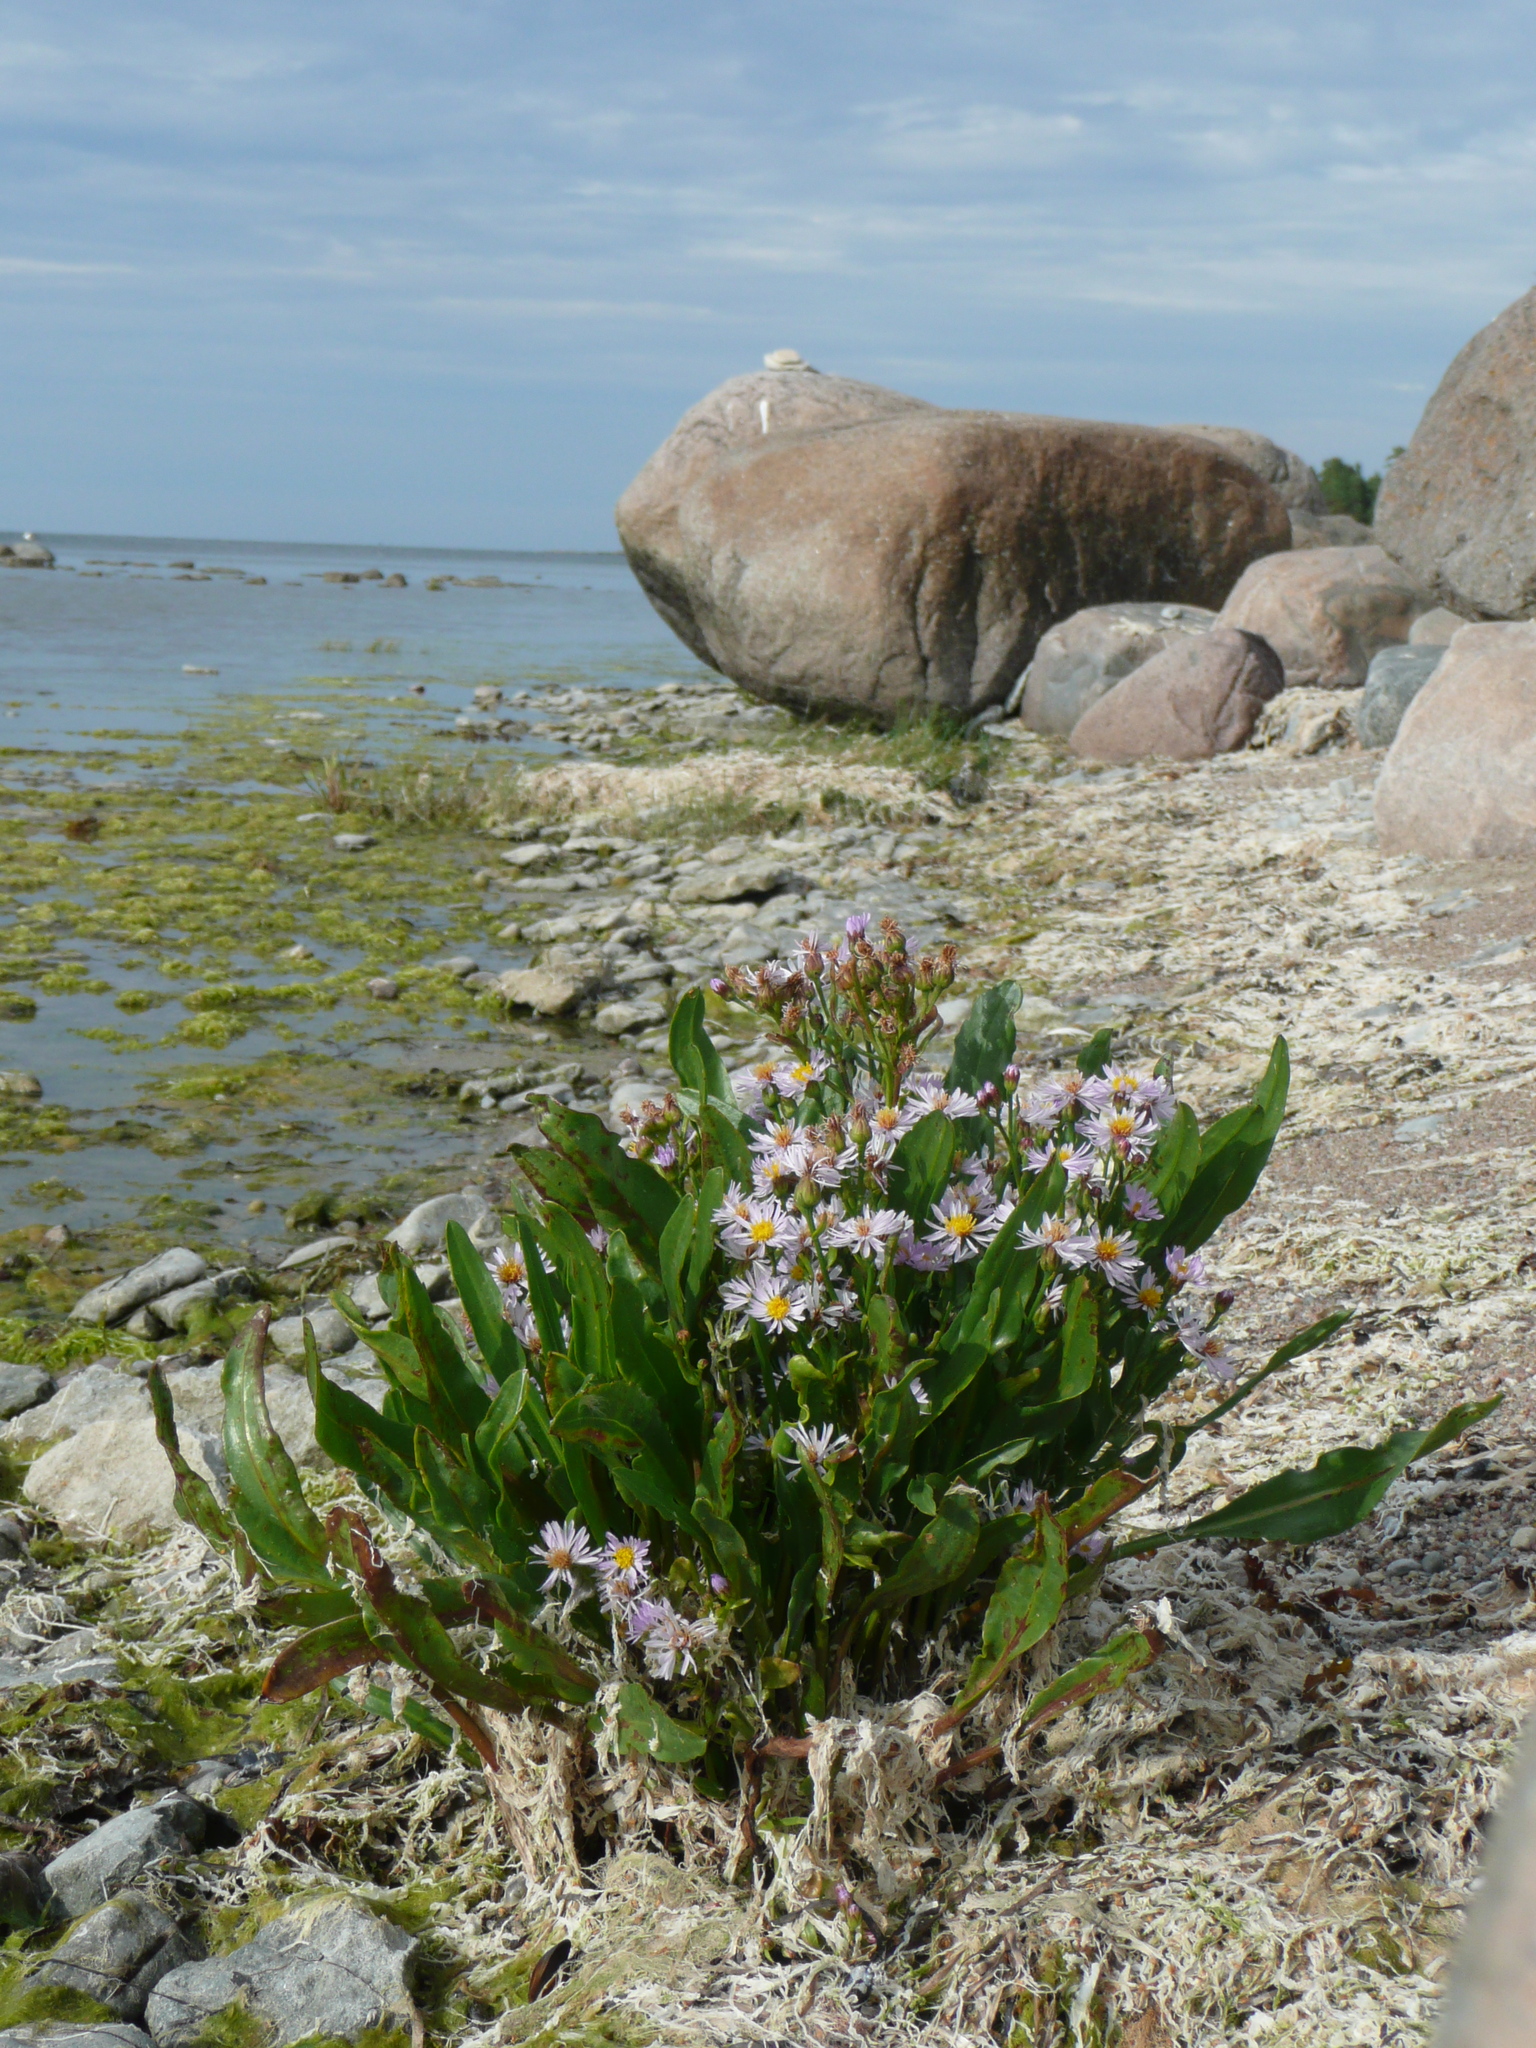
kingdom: Plantae
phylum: Tracheophyta
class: Magnoliopsida
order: Asterales
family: Asteraceae
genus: Tripolium
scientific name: Tripolium pannonicum
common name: Sea aster
